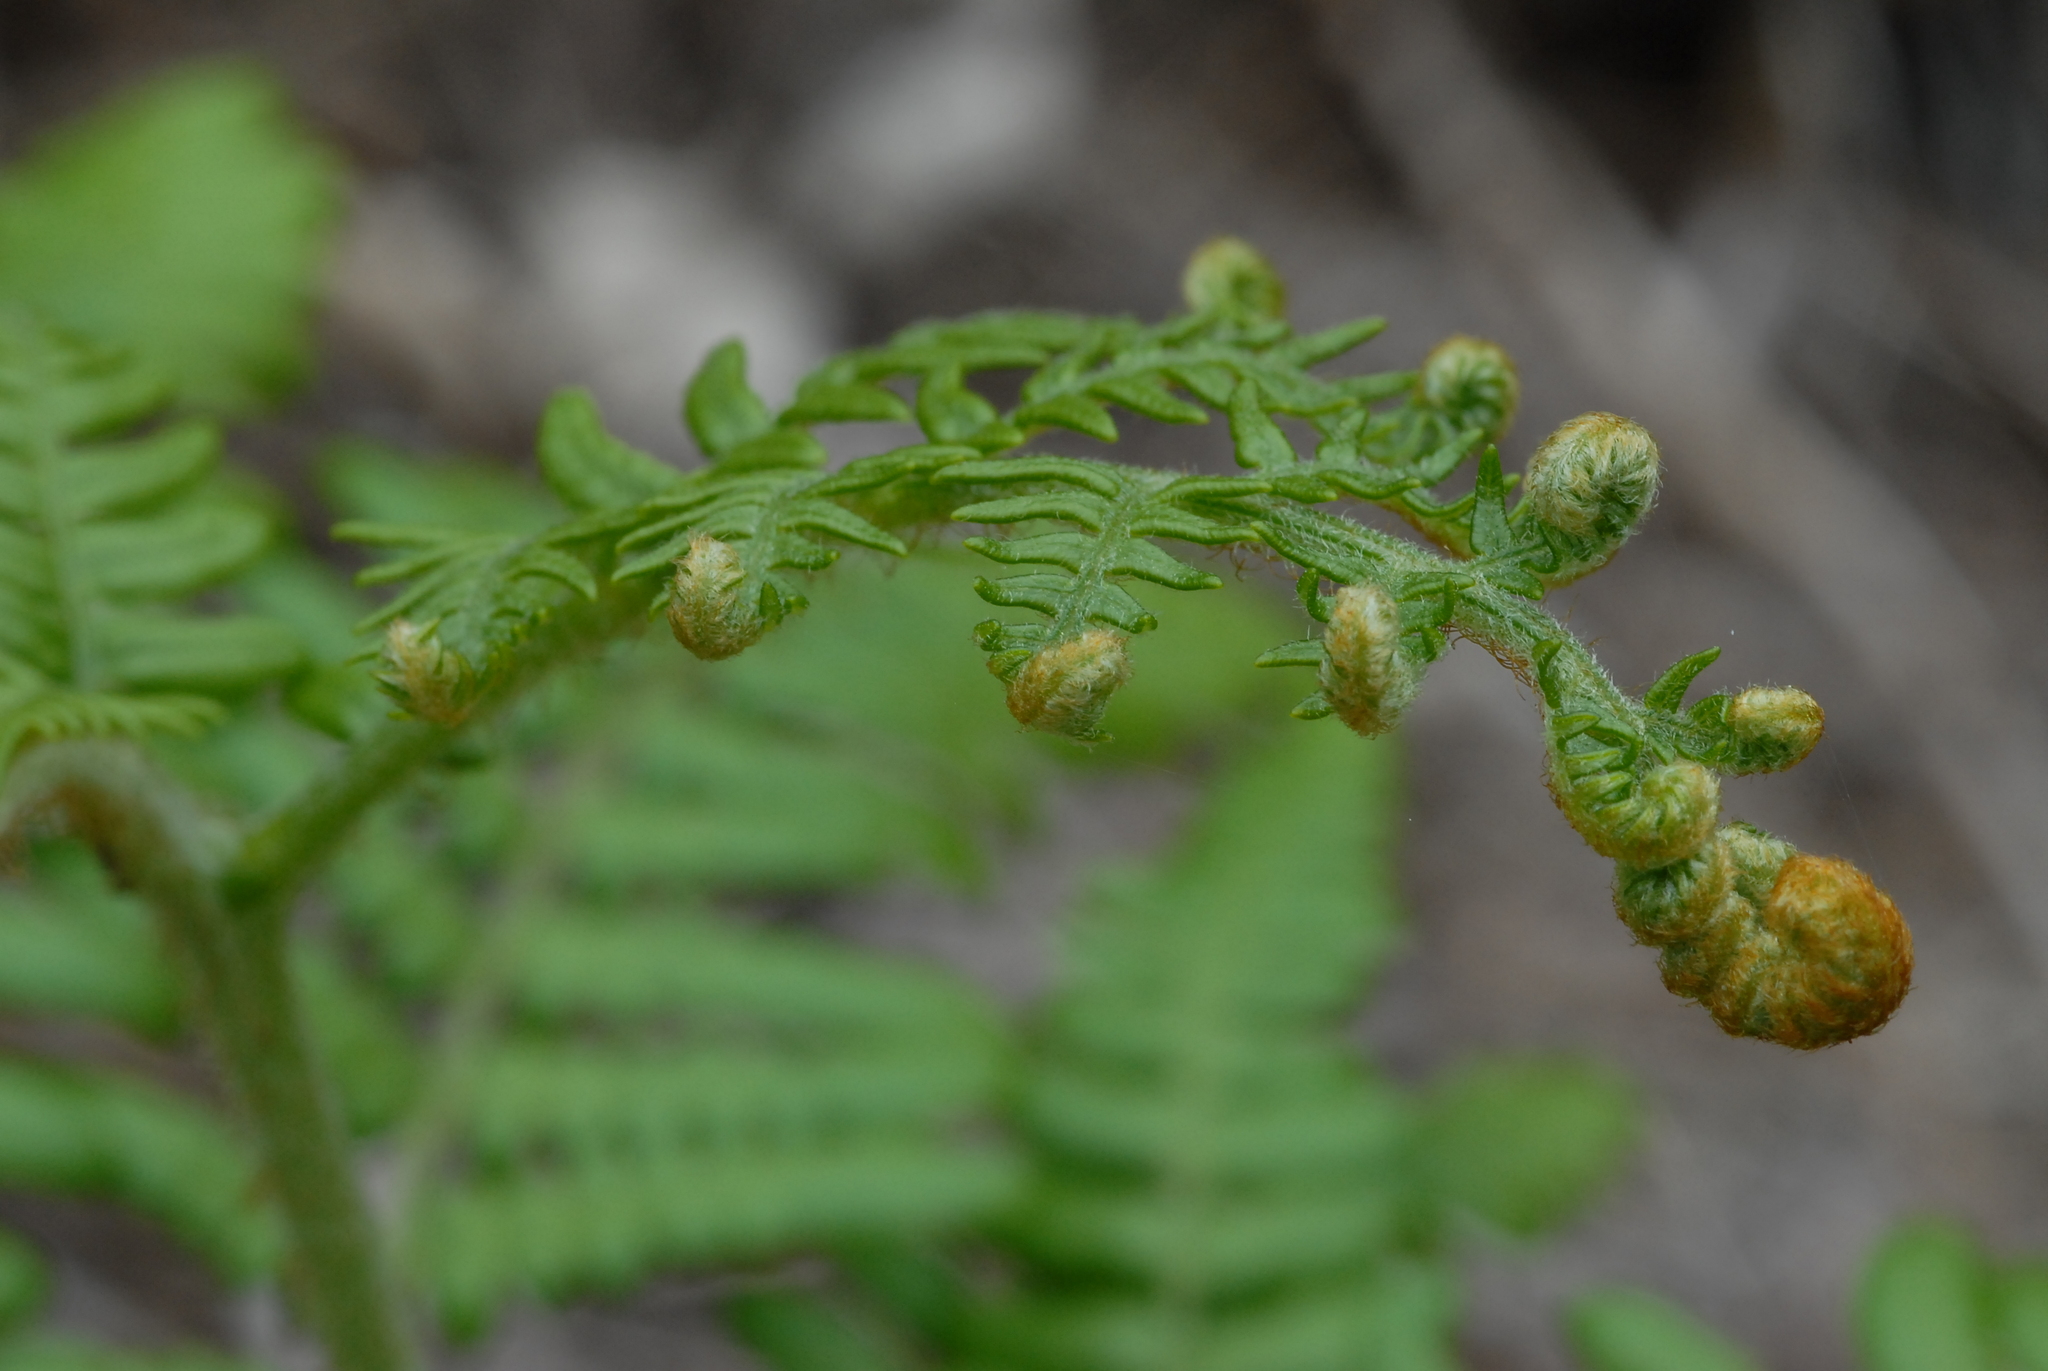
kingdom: Plantae
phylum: Tracheophyta
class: Polypodiopsida
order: Polypodiales
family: Dennstaedtiaceae
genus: Pteridium
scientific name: Pteridium aquilinum
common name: Bracken
